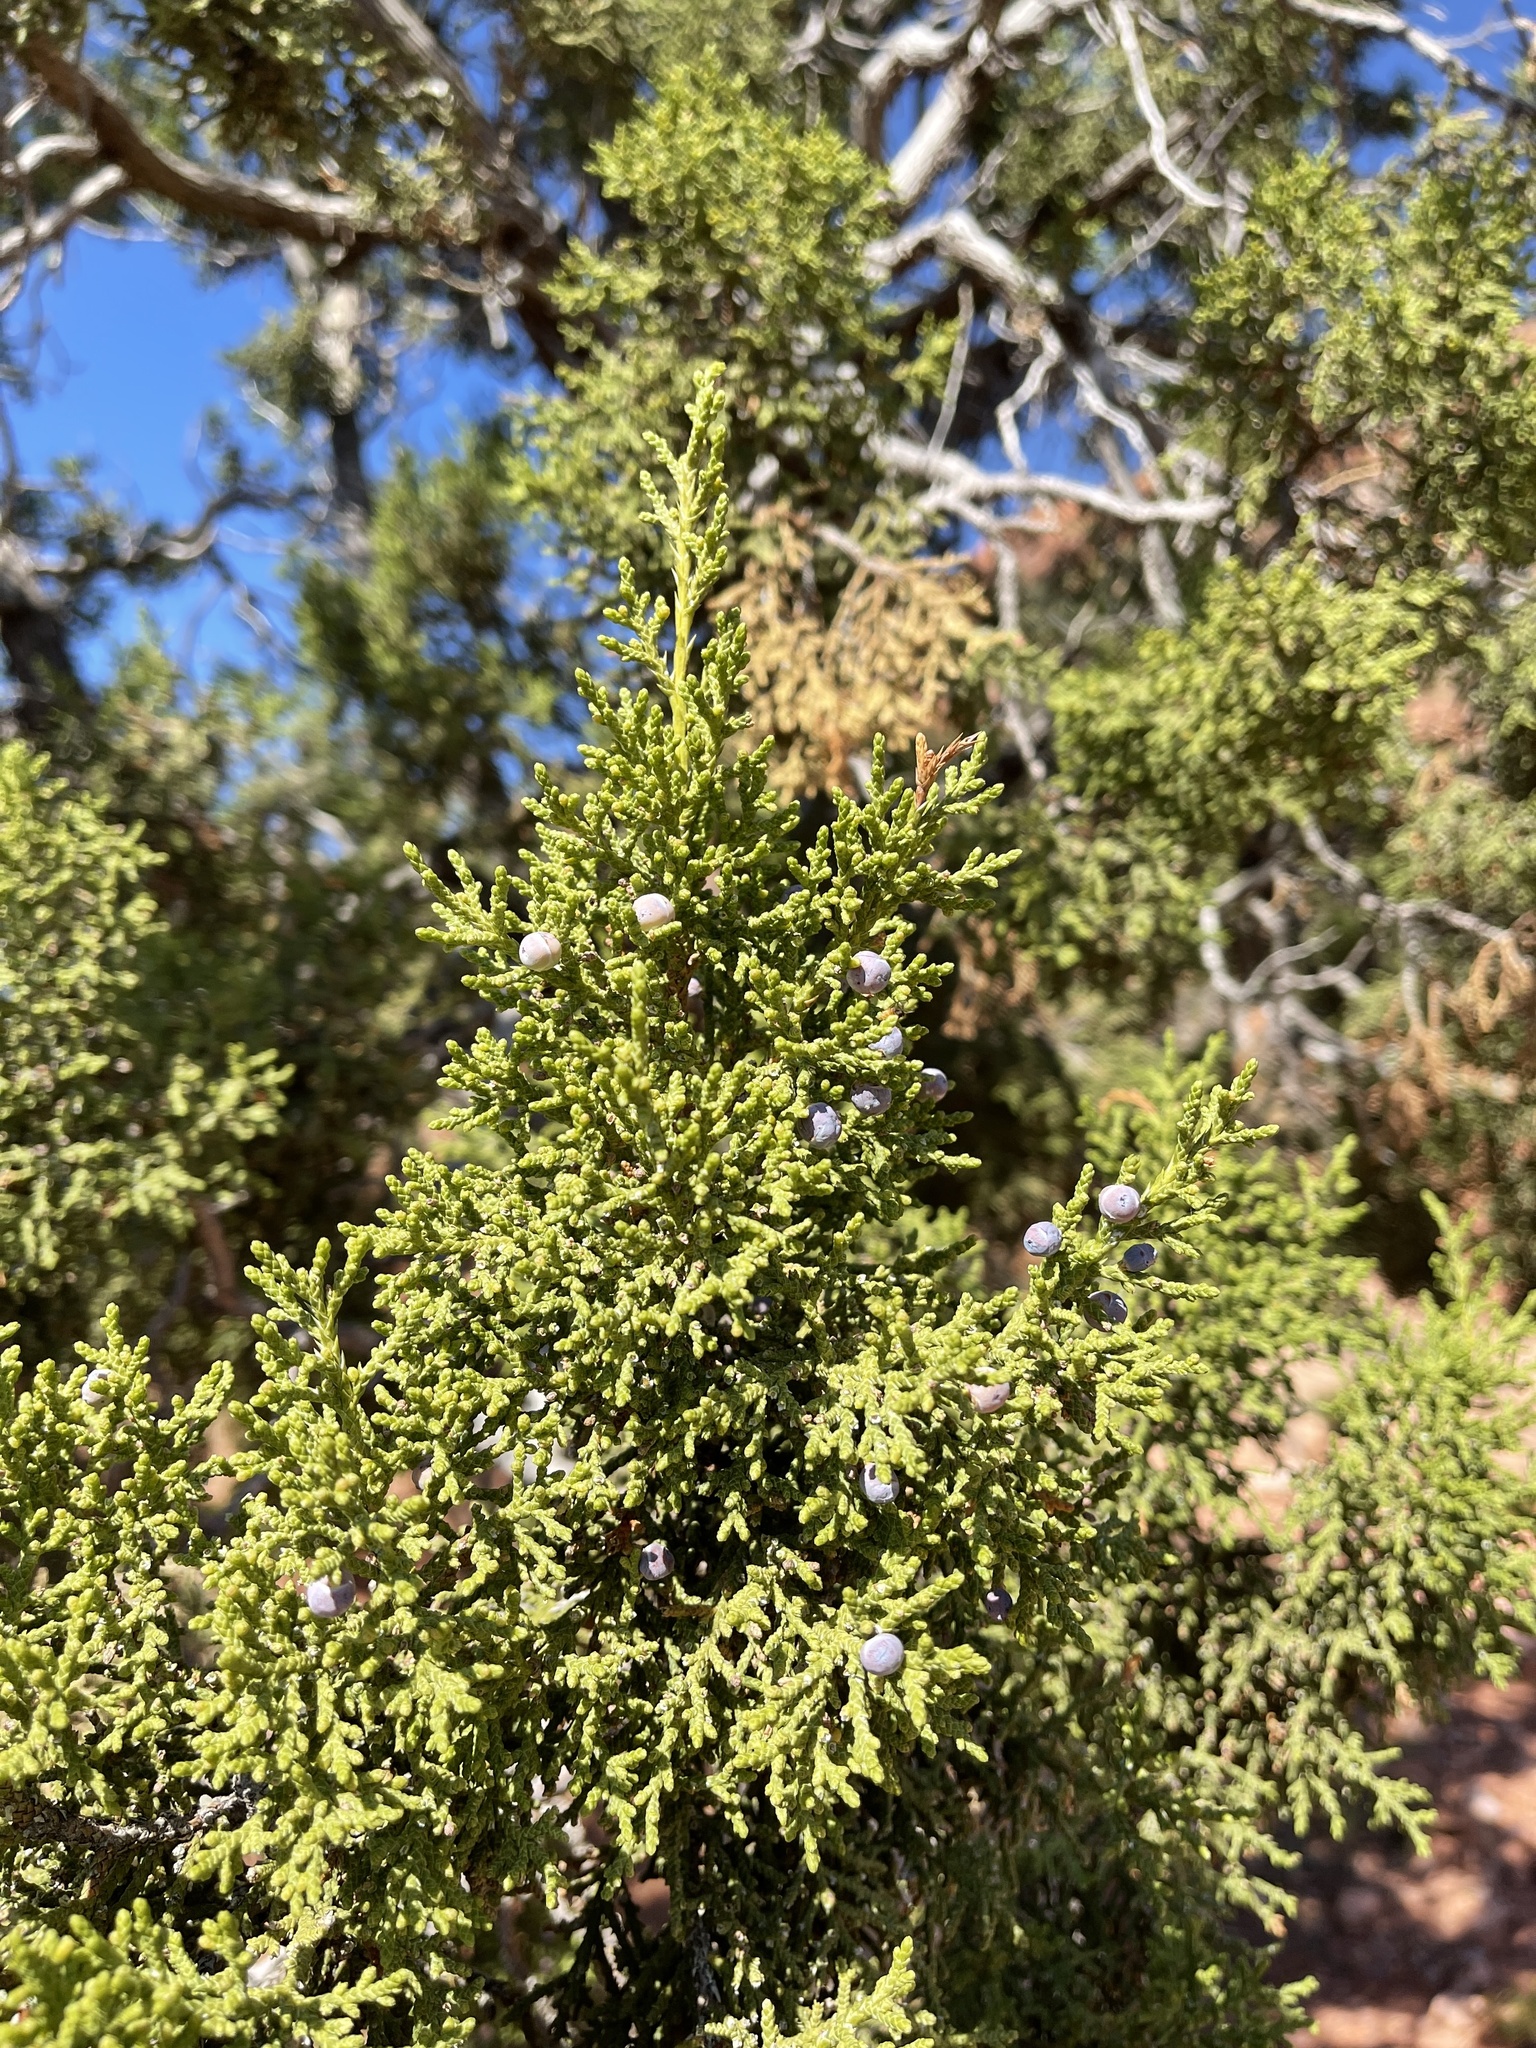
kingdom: Plantae
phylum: Tracheophyta
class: Pinopsida
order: Pinales
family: Cupressaceae
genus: Juniperus
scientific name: Juniperus osteosperma
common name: Utah juniper
